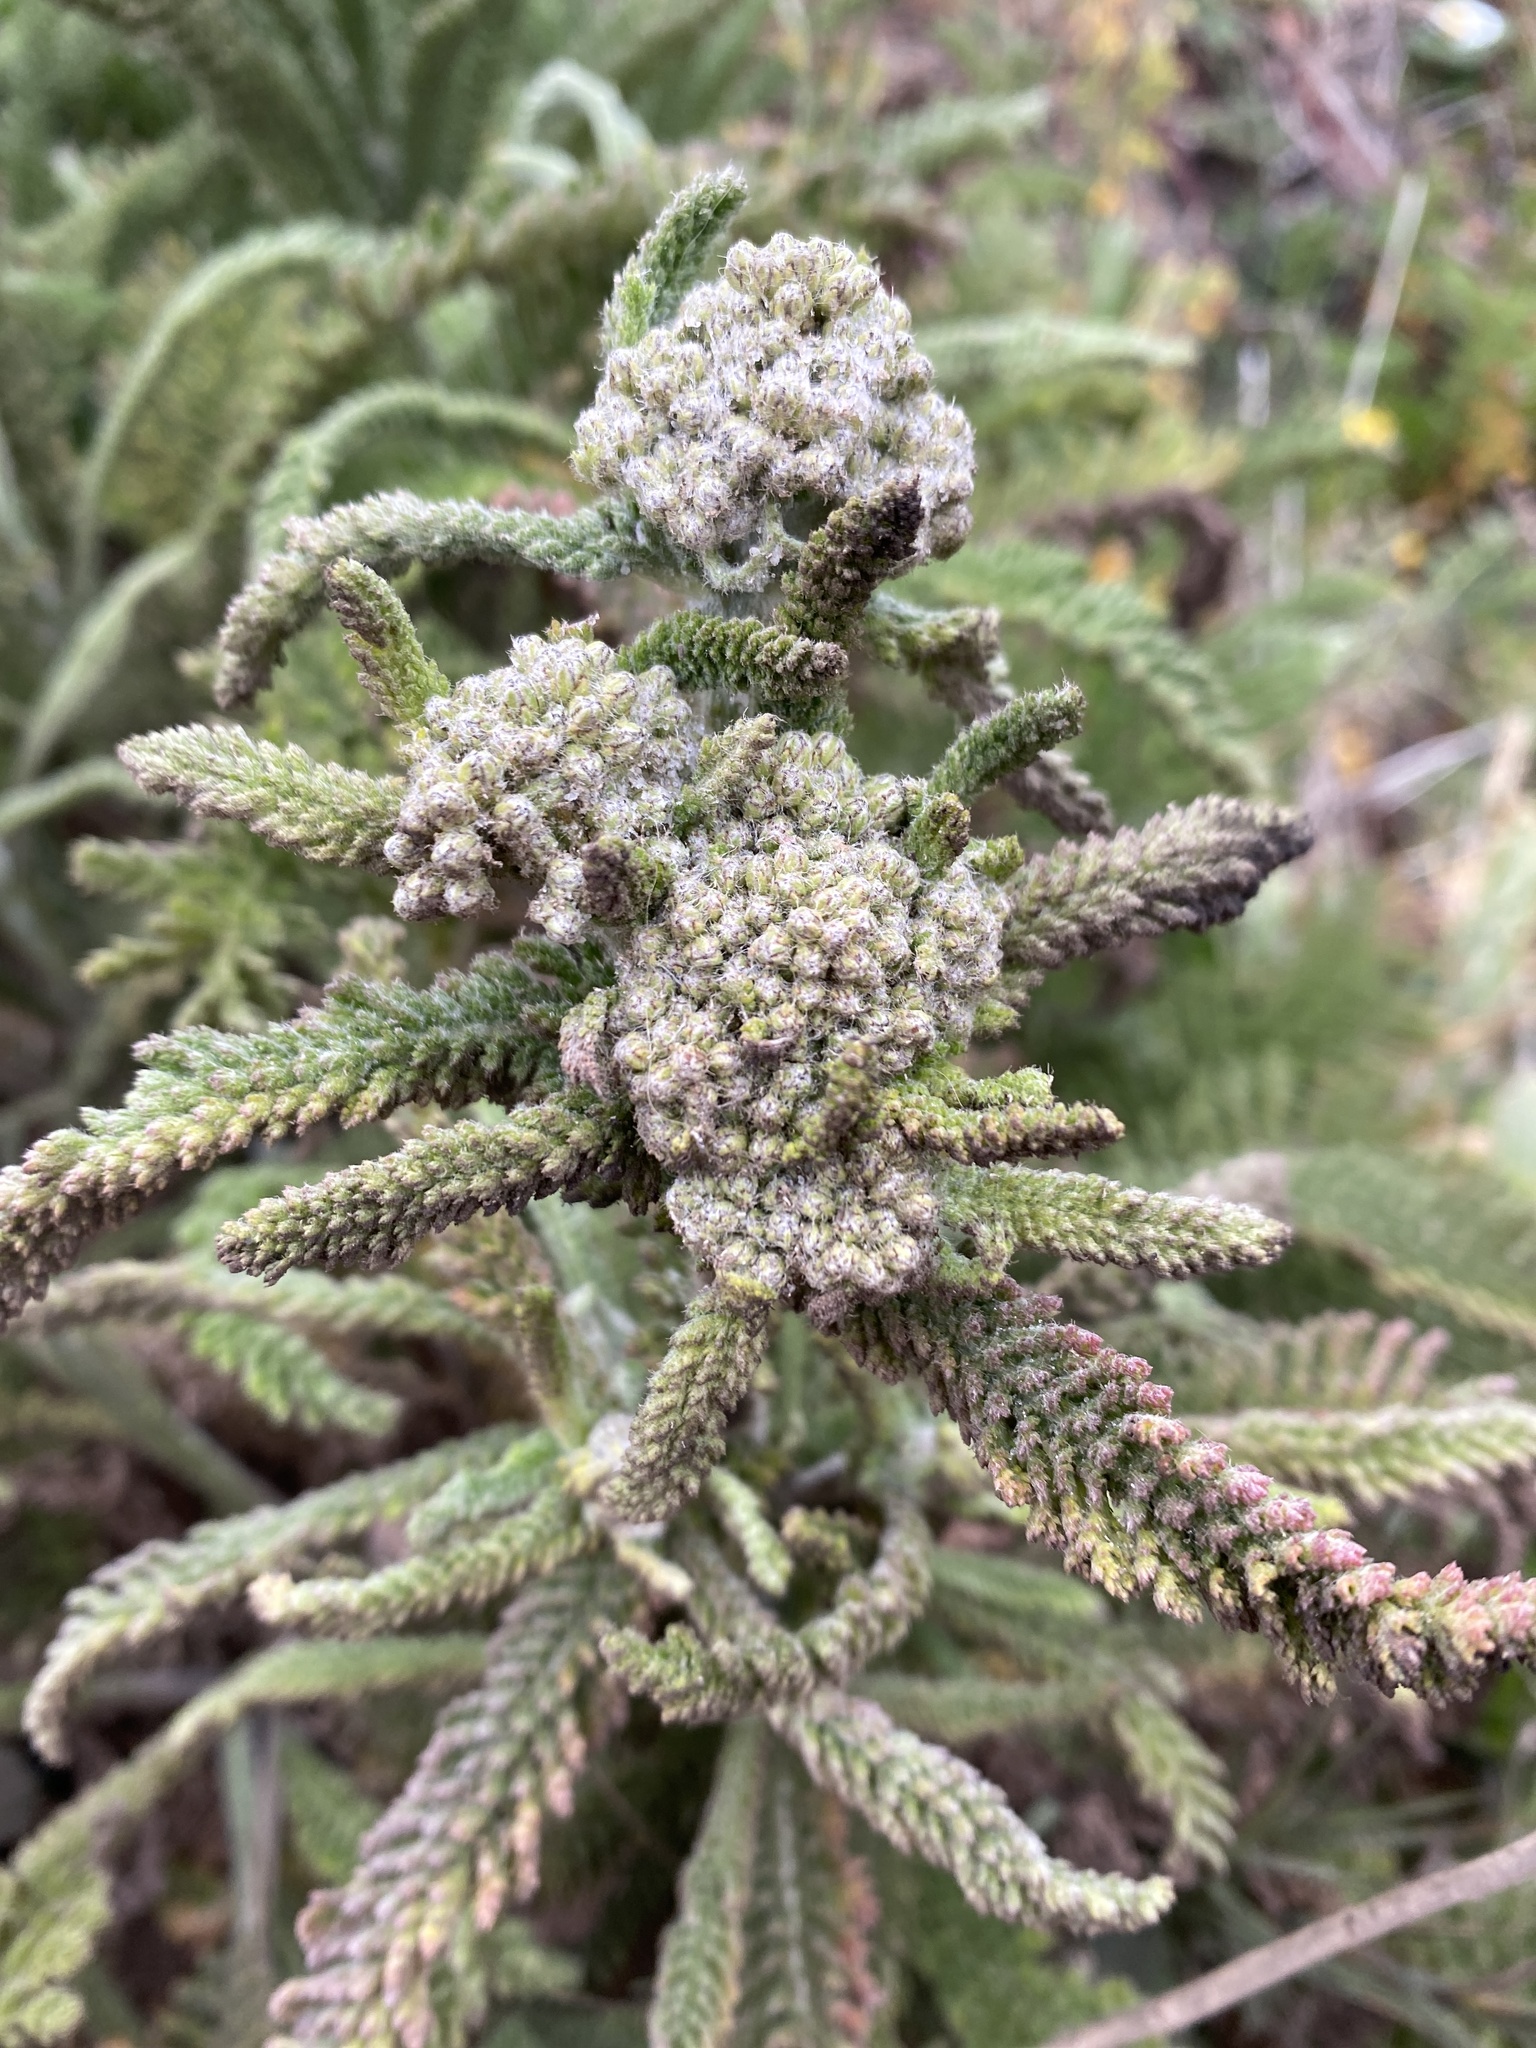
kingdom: Plantae
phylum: Tracheophyta
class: Magnoliopsida
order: Asterales
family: Asteraceae
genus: Achillea
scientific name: Achillea millefolium
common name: Yarrow
